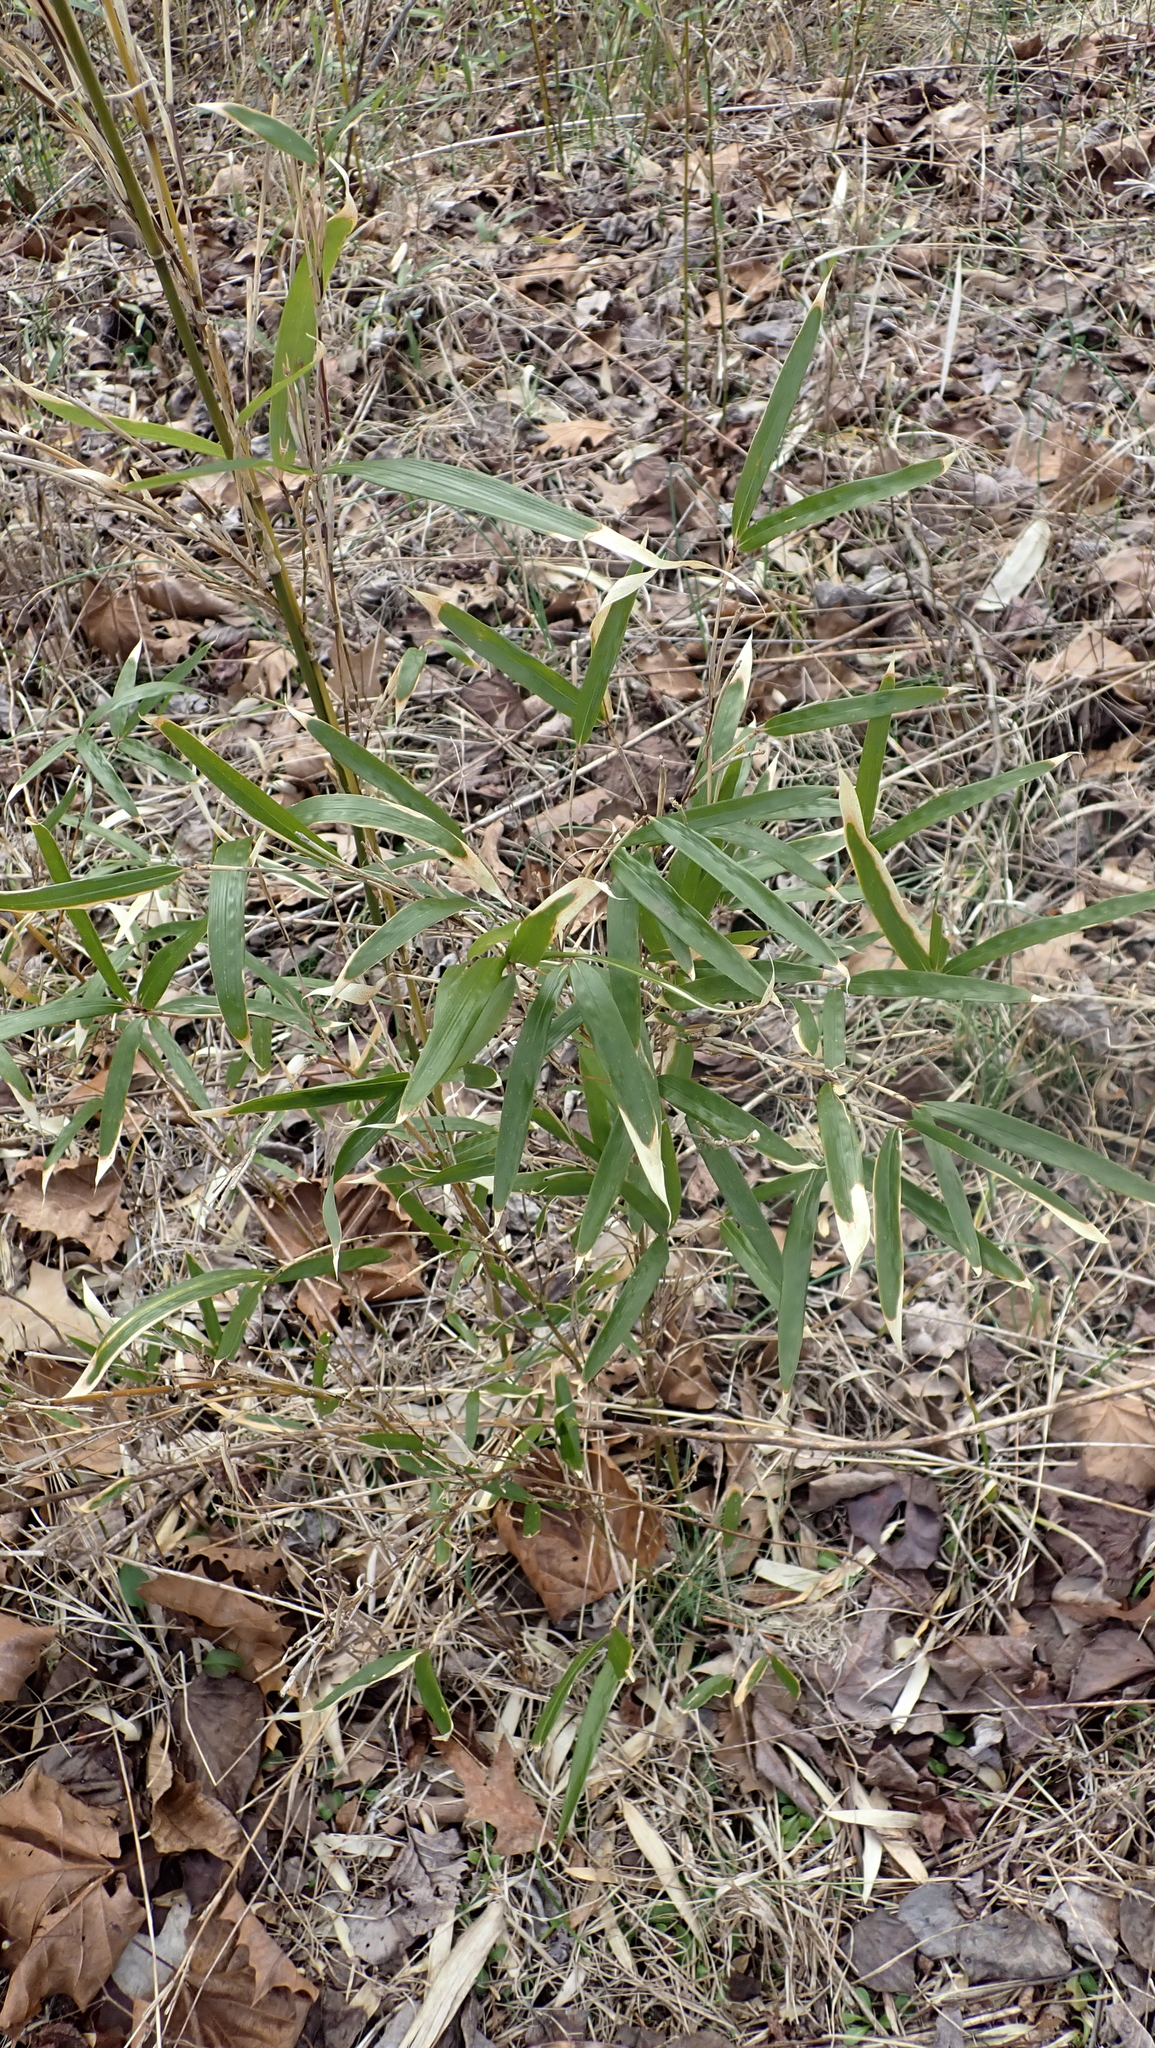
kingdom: Plantae
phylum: Tracheophyta
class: Liliopsida
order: Poales
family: Poaceae
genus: Arundinaria
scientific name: Arundinaria gigantea
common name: Giant cane
